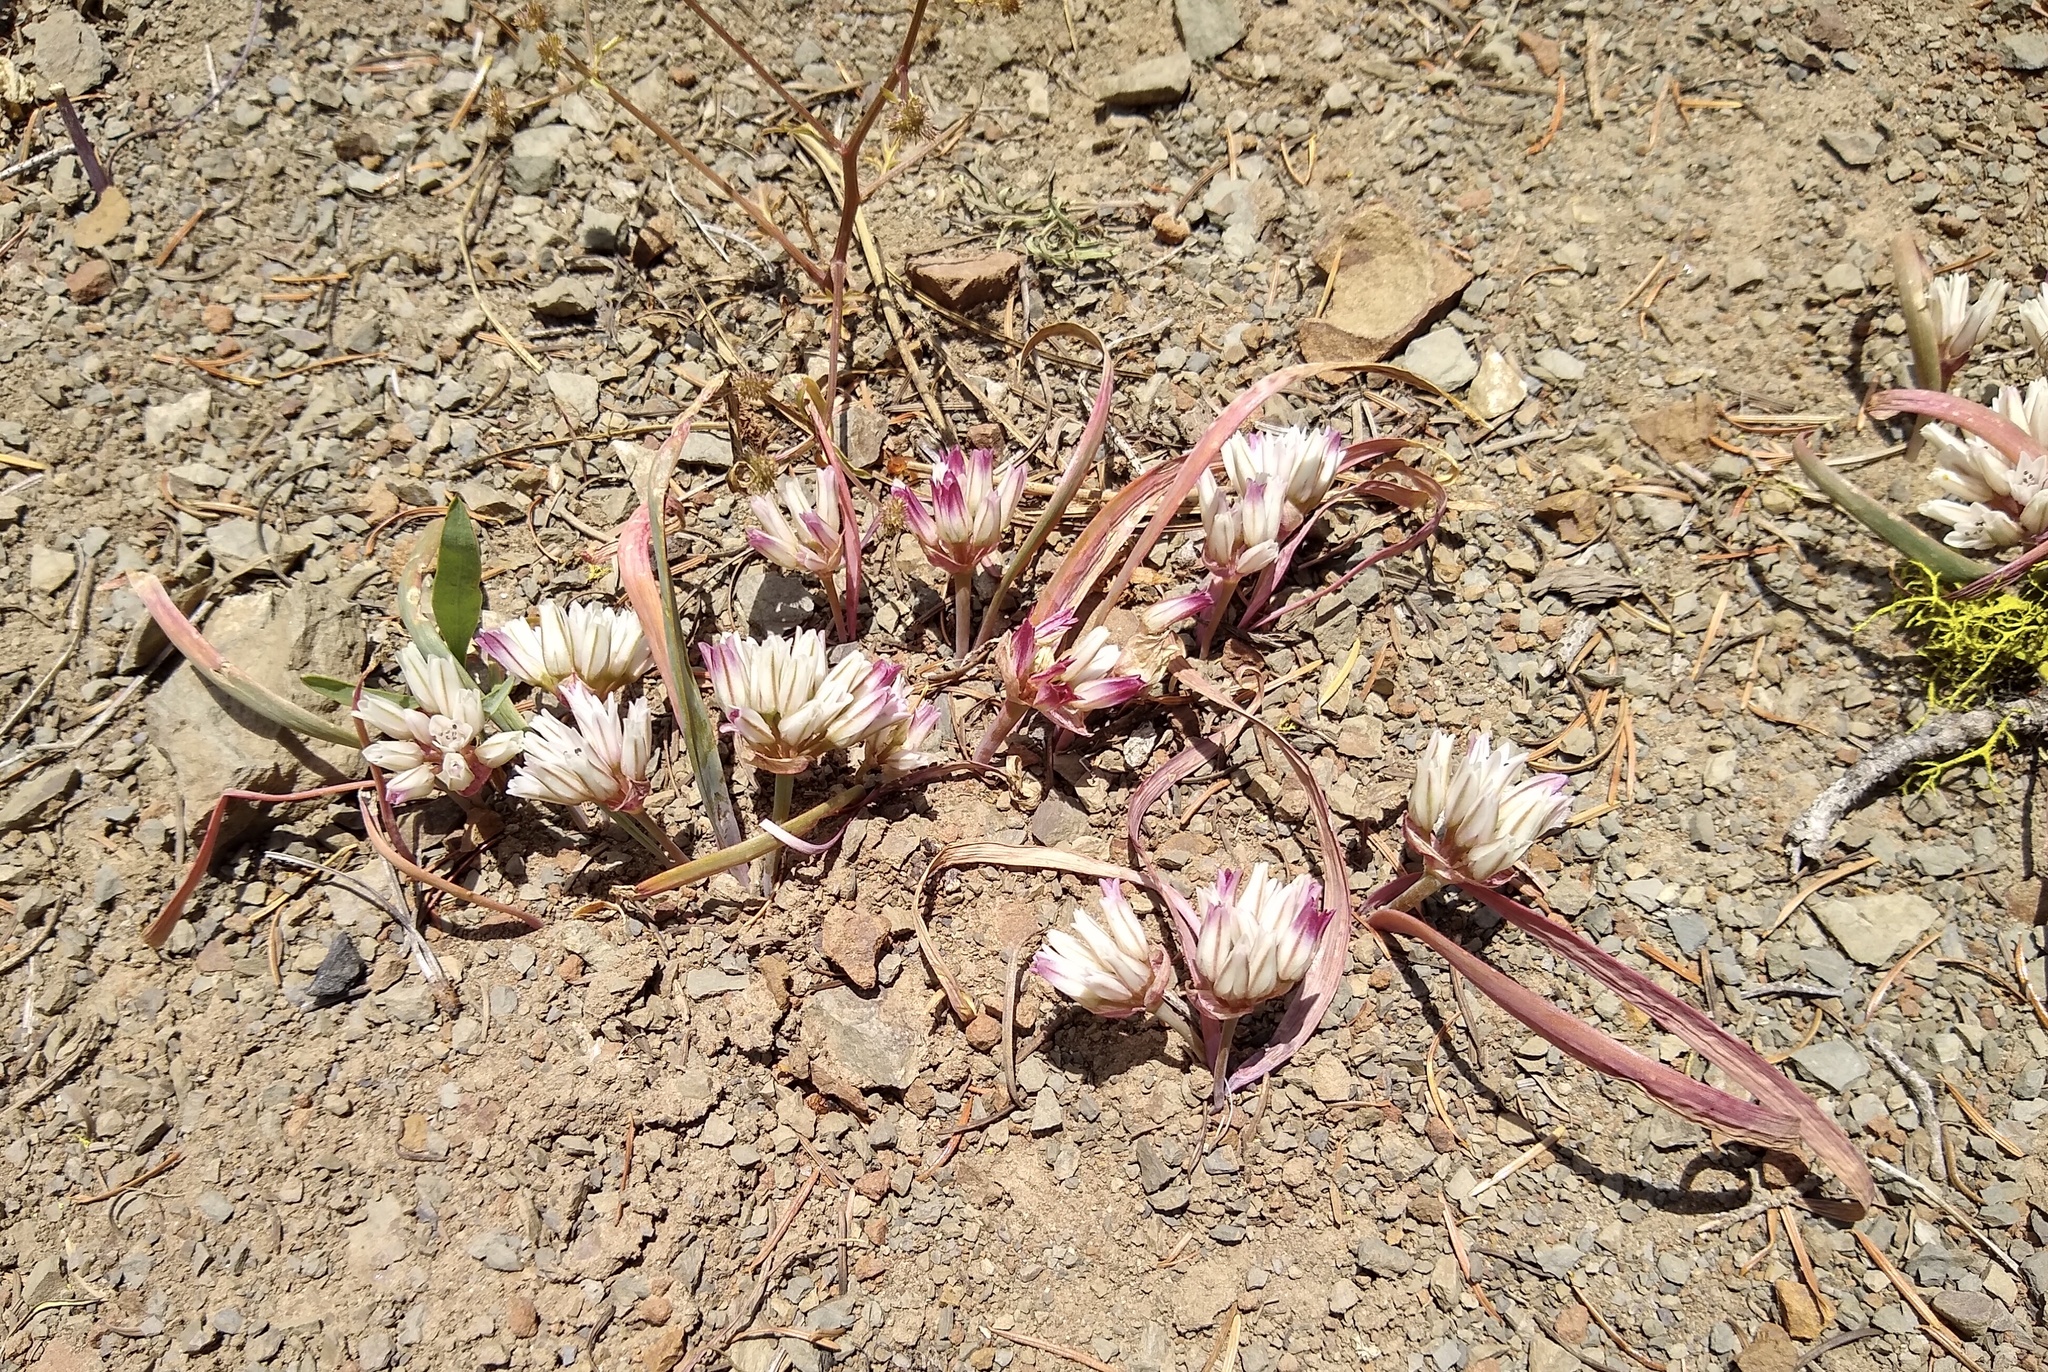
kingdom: Plantae
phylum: Tracheophyta
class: Liliopsida
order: Asparagales
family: Amaryllidaceae
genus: Allium
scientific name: Allium crenulatum
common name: Olympic onion
